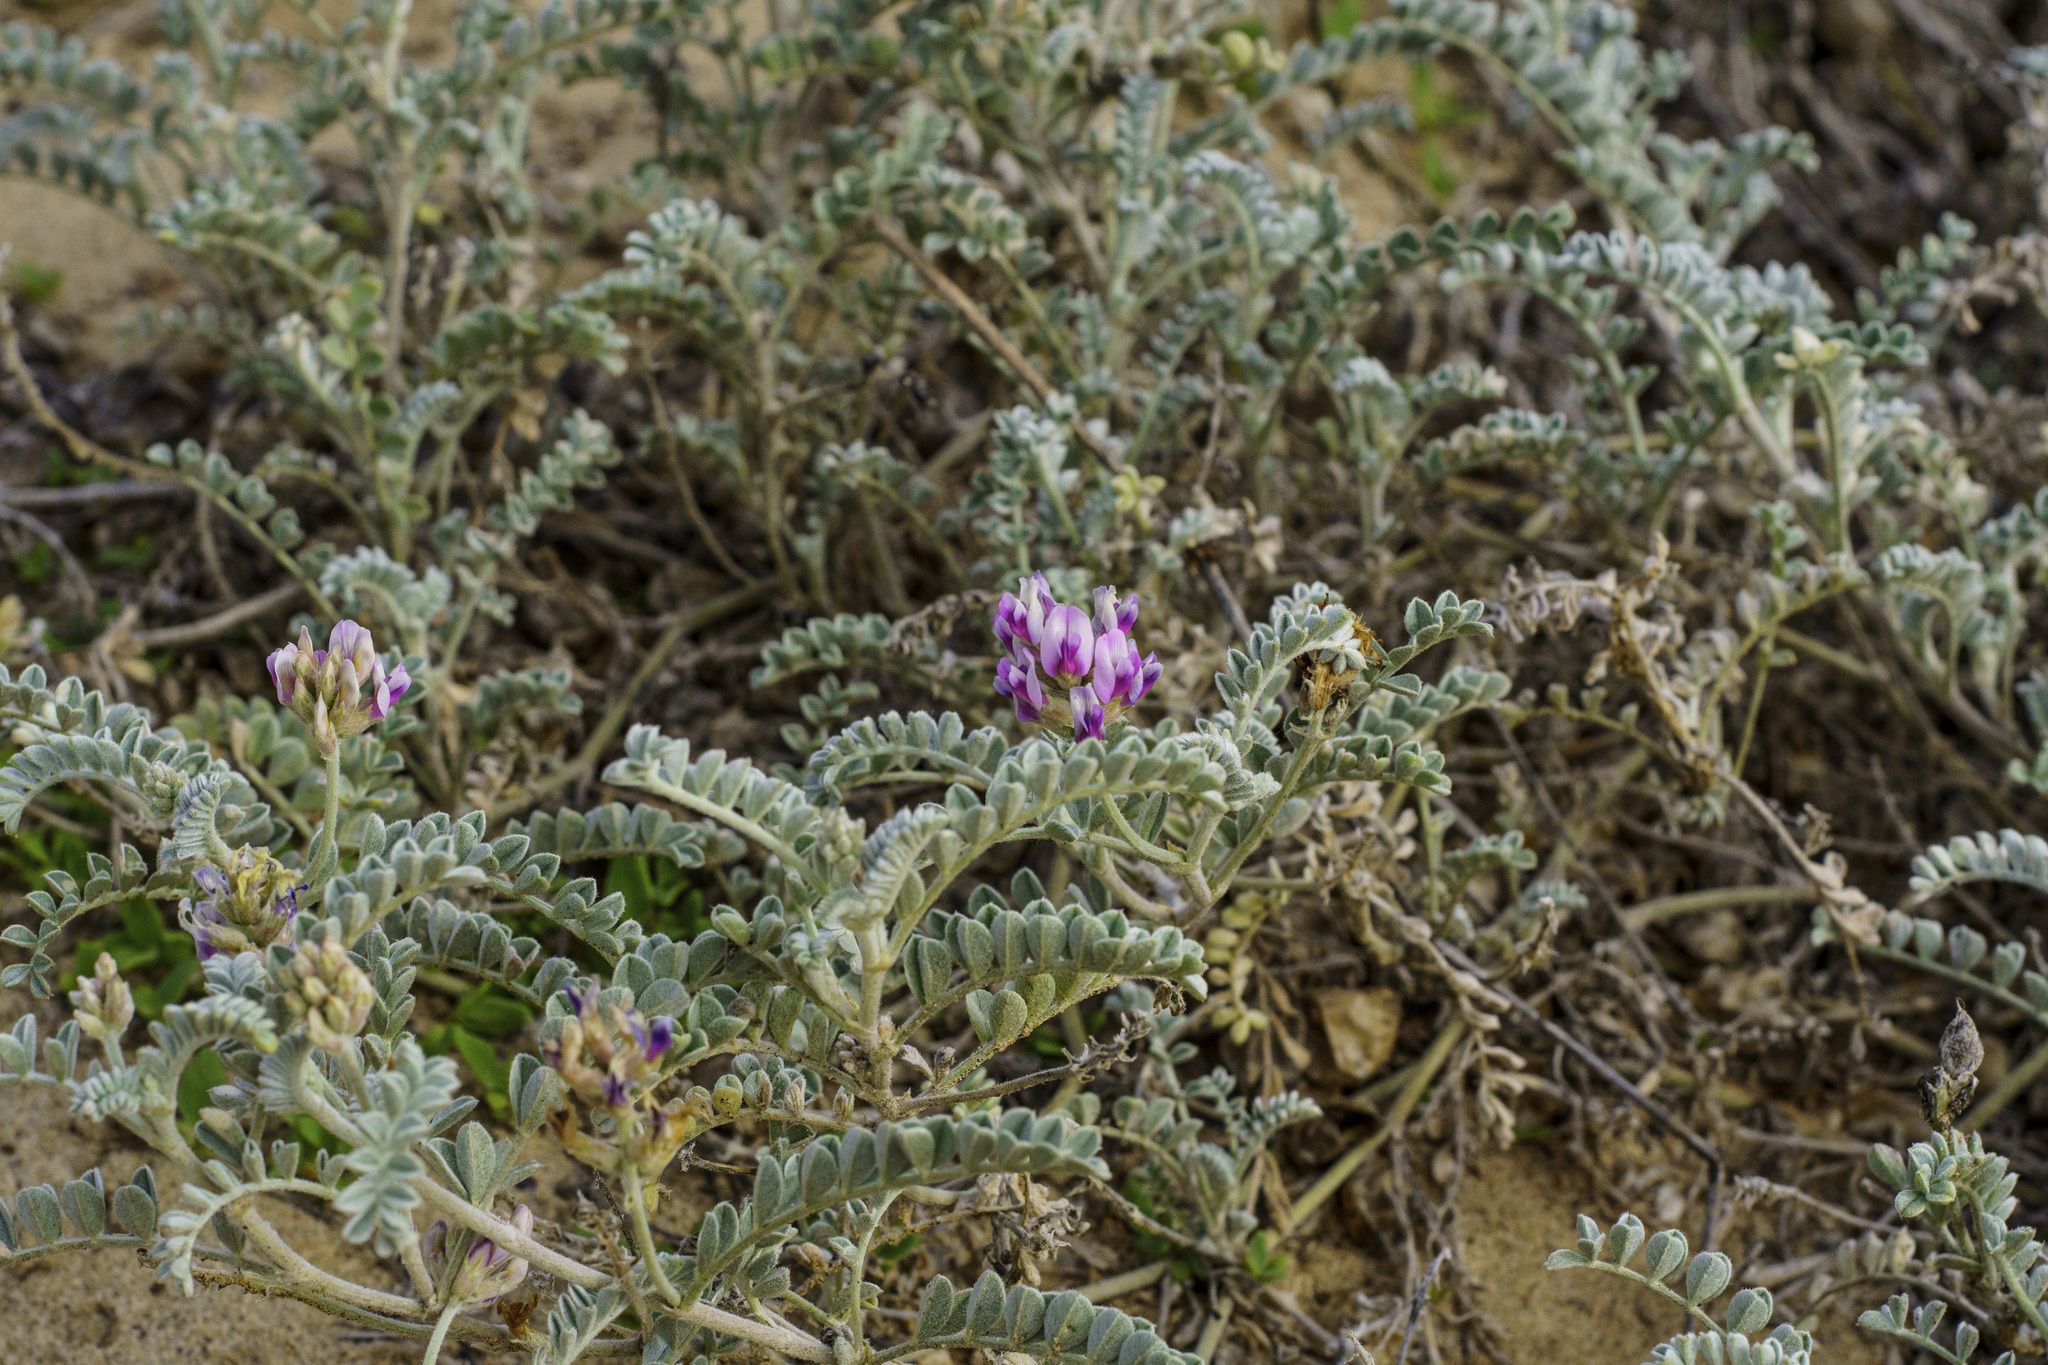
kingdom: Plantae
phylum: Tracheophyta
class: Magnoliopsida
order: Fabales
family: Fabaceae
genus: Astragalus
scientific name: Astragalus harbisonii
